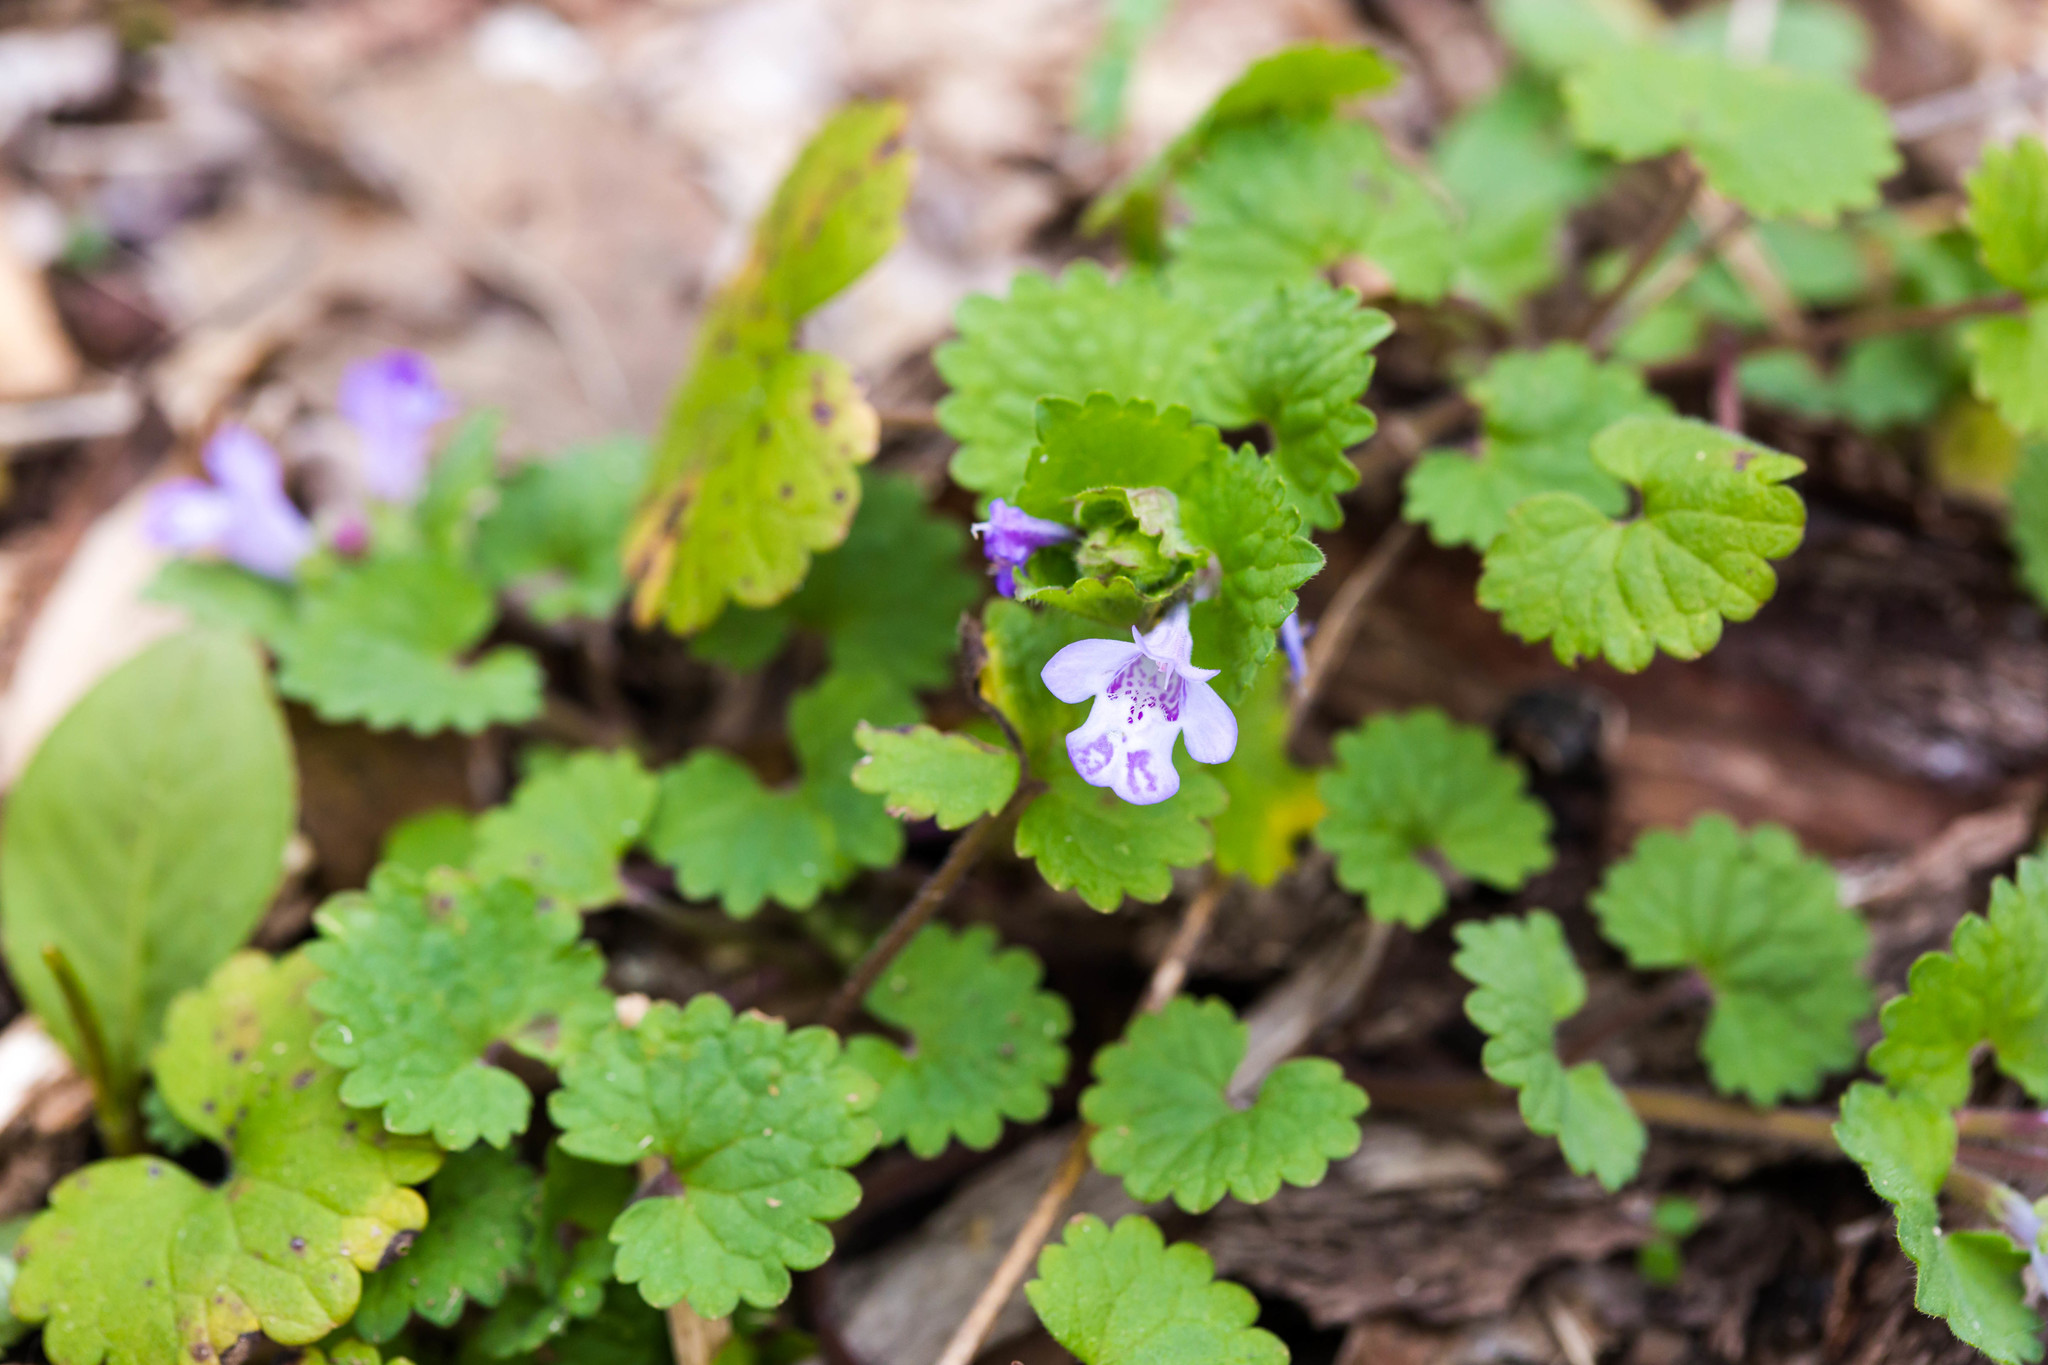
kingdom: Plantae
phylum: Tracheophyta
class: Magnoliopsida
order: Lamiales
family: Lamiaceae
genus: Glechoma
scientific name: Glechoma hederacea
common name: Ground ivy
